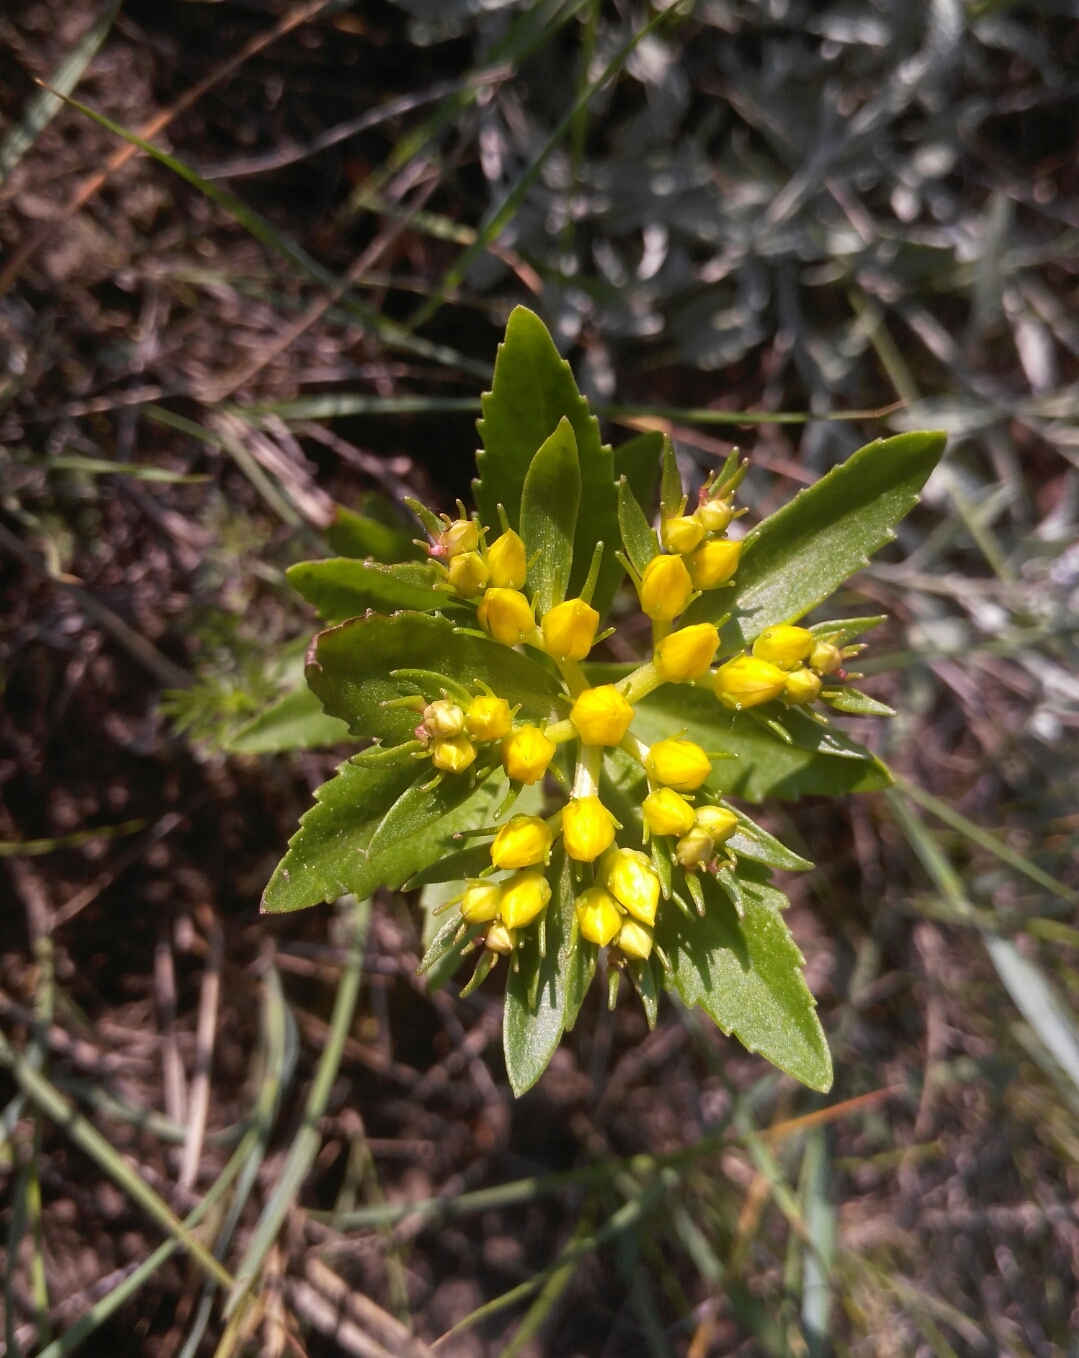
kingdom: Plantae
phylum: Tracheophyta
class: Magnoliopsida
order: Saxifragales
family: Crassulaceae
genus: Phedimus
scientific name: Phedimus aizoon
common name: Orpin aizoon
